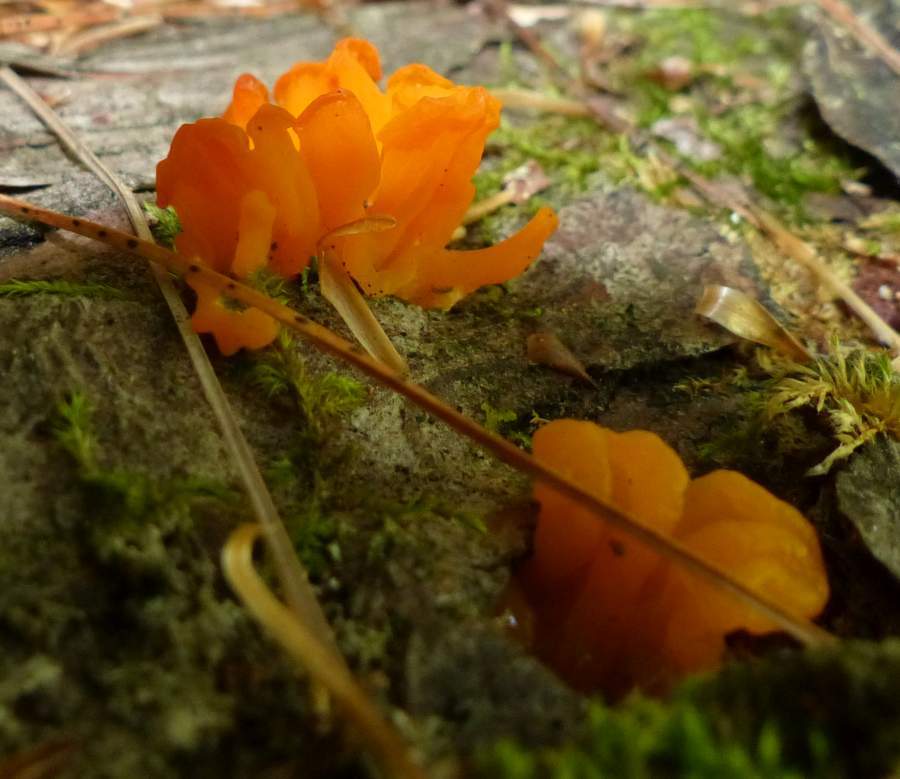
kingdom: Fungi
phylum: Basidiomycota
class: Dacrymycetes
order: Dacrymycetales
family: Dacrymycetaceae
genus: Dacrymyces
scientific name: Dacrymyces chrysospermus
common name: Orange jelly spot
